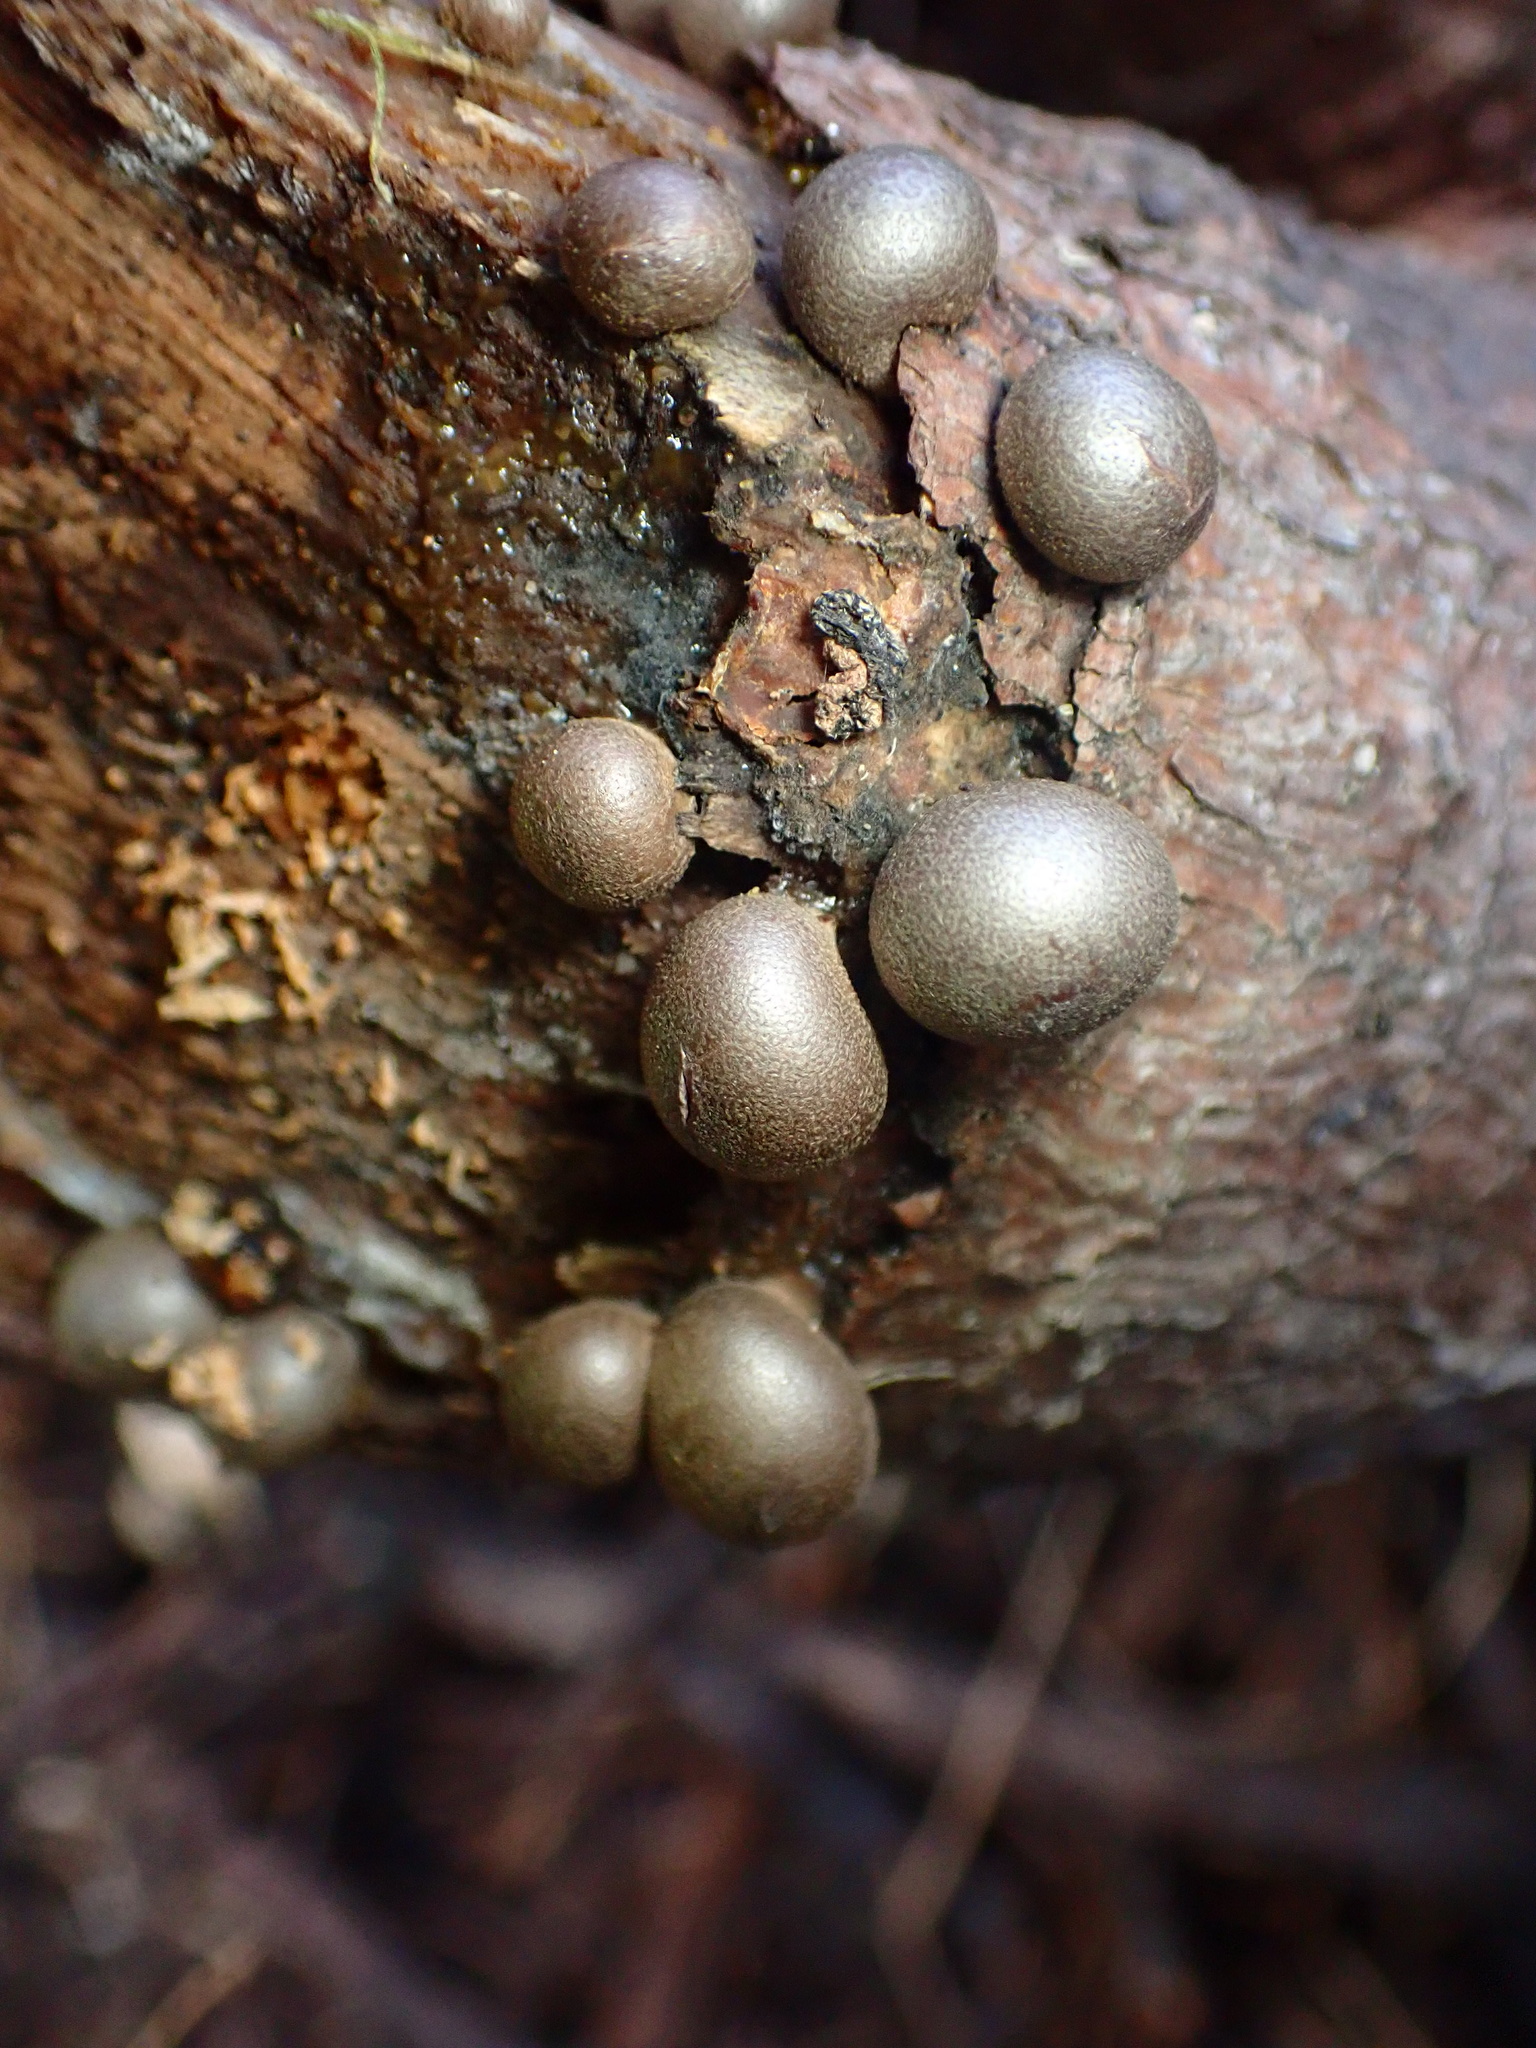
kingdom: Protozoa
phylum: Mycetozoa
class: Myxomycetes
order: Cribrariales
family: Tubiferaceae
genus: Lycogala
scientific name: Lycogala epidendrum
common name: Wolf's milk
